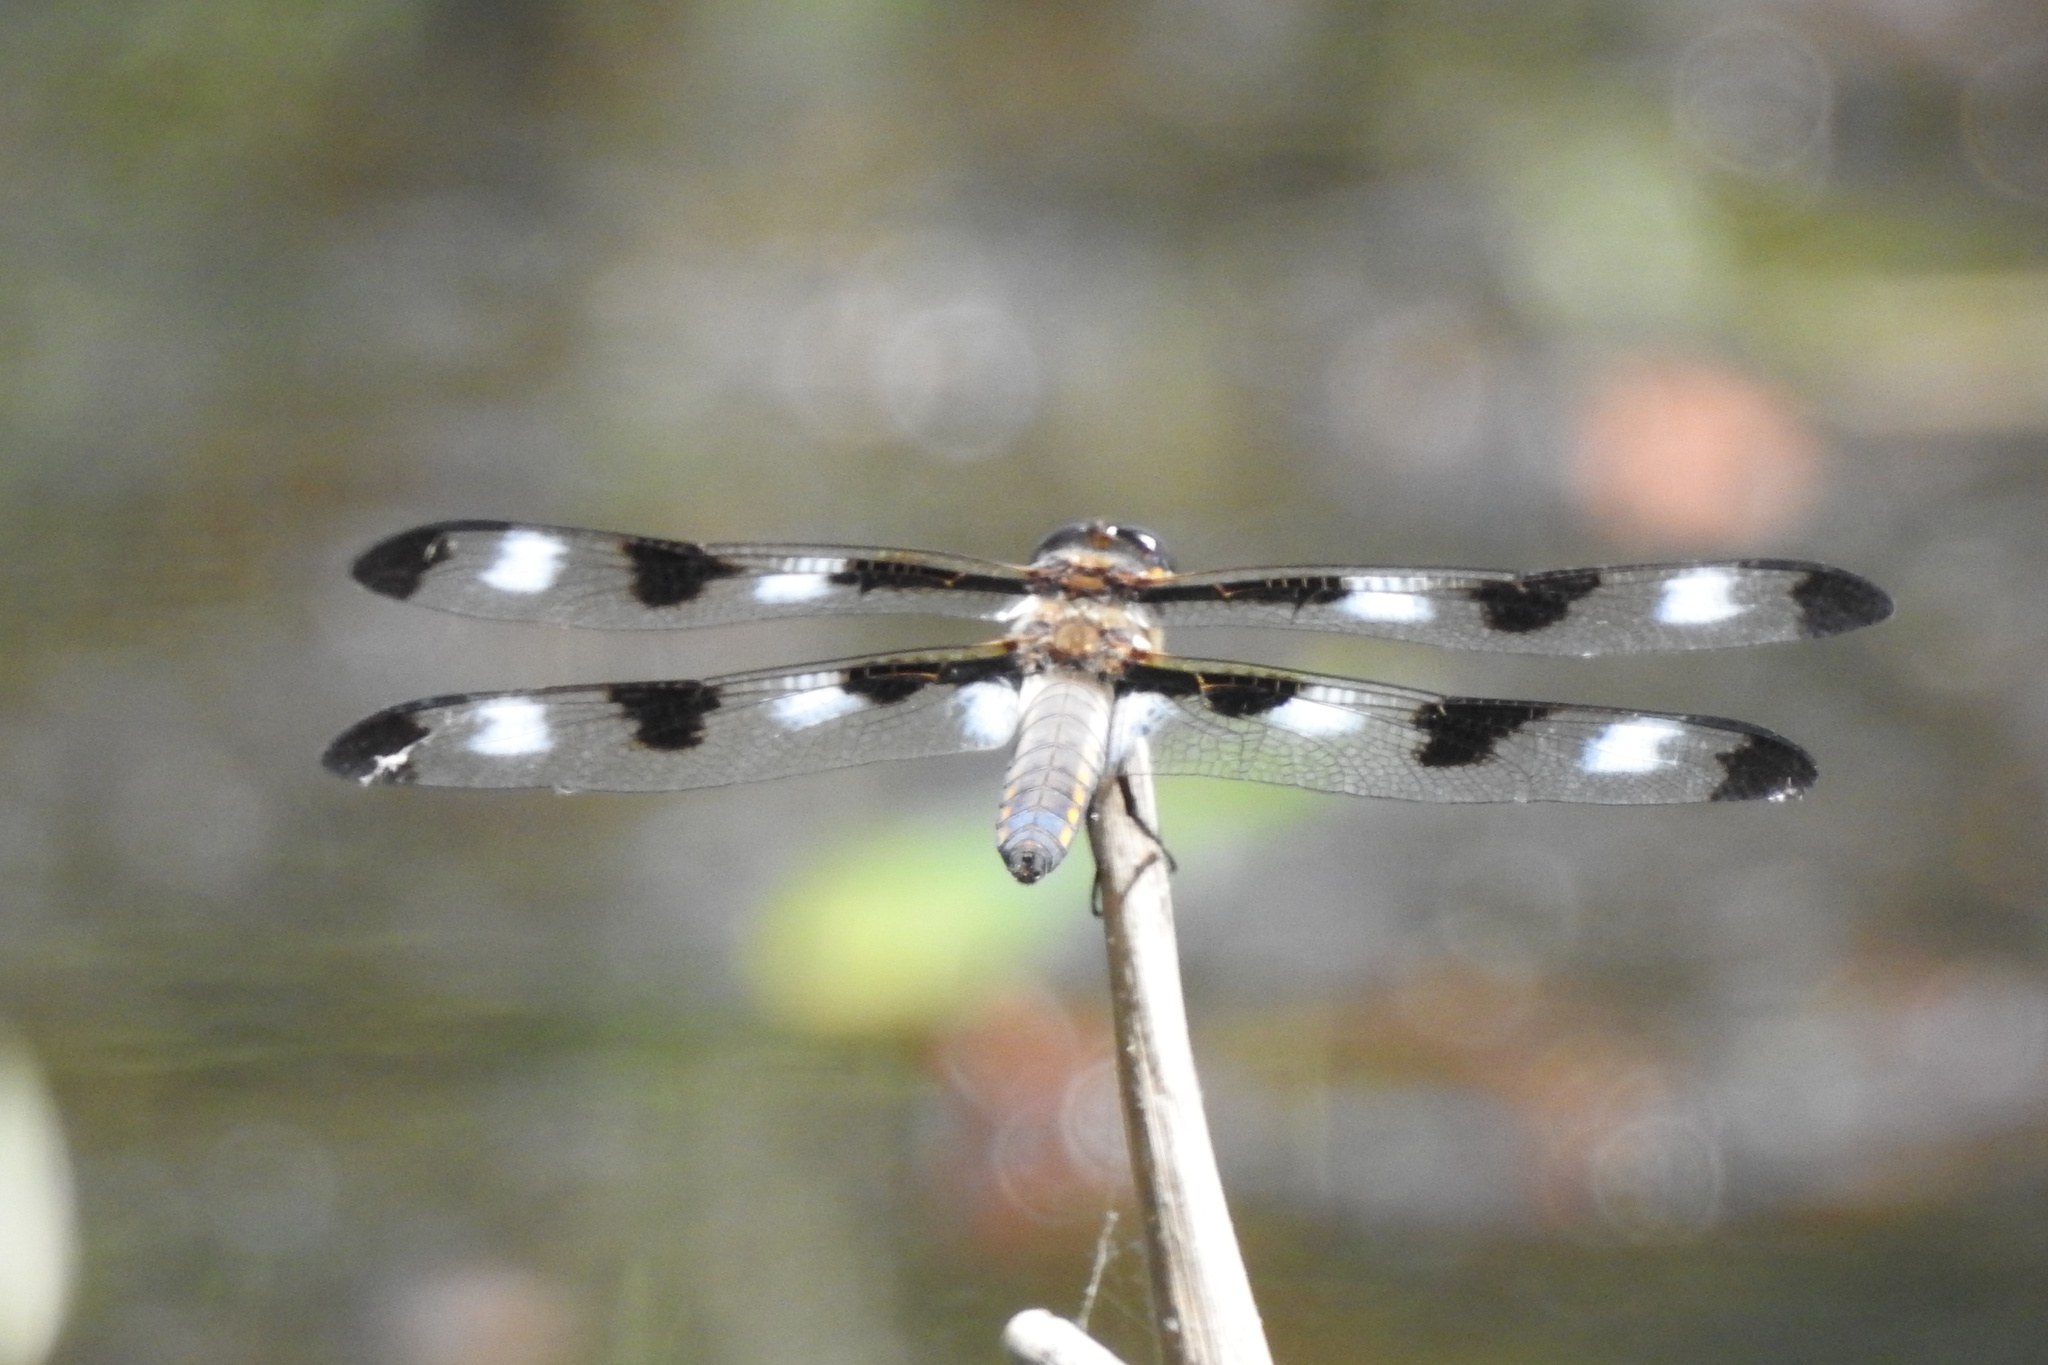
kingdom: Animalia
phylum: Arthropoda
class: Insecta
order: Odonata
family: Libellulidae
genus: Libellula
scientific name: Libellula pulchella
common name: Twelve-spotted skimmer
